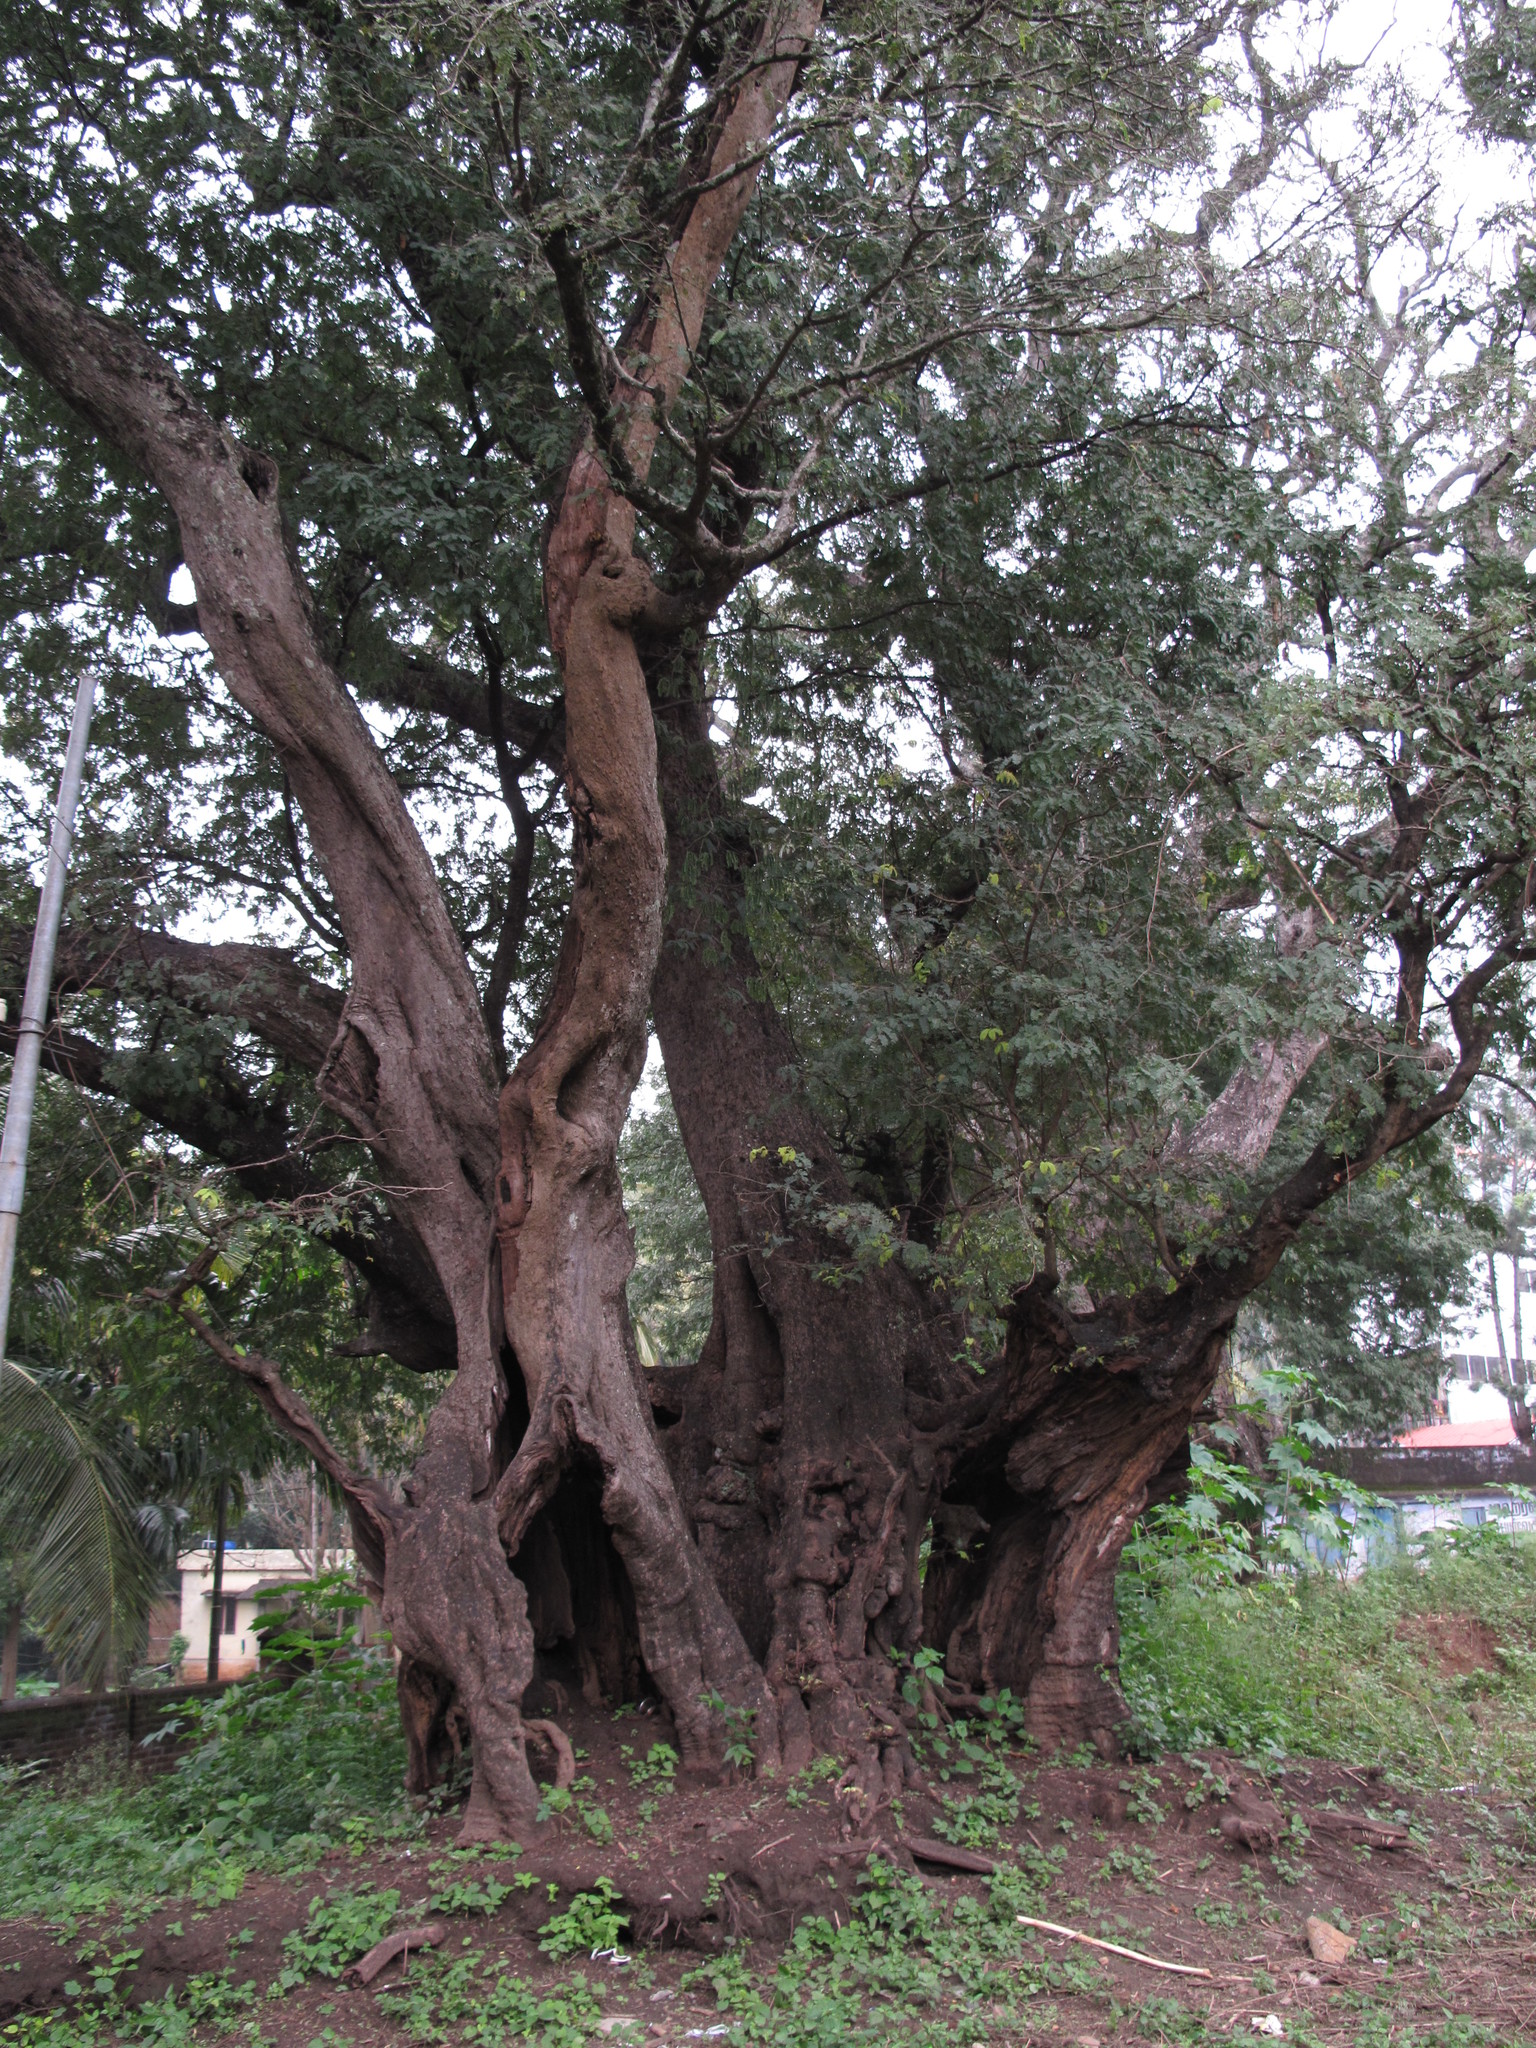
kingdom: Plantae
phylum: Tracheophyta
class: Magnoliopsida
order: Fabales
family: Fabaceae
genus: Tamarindus
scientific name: Tamarindus indica
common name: Tamarind
